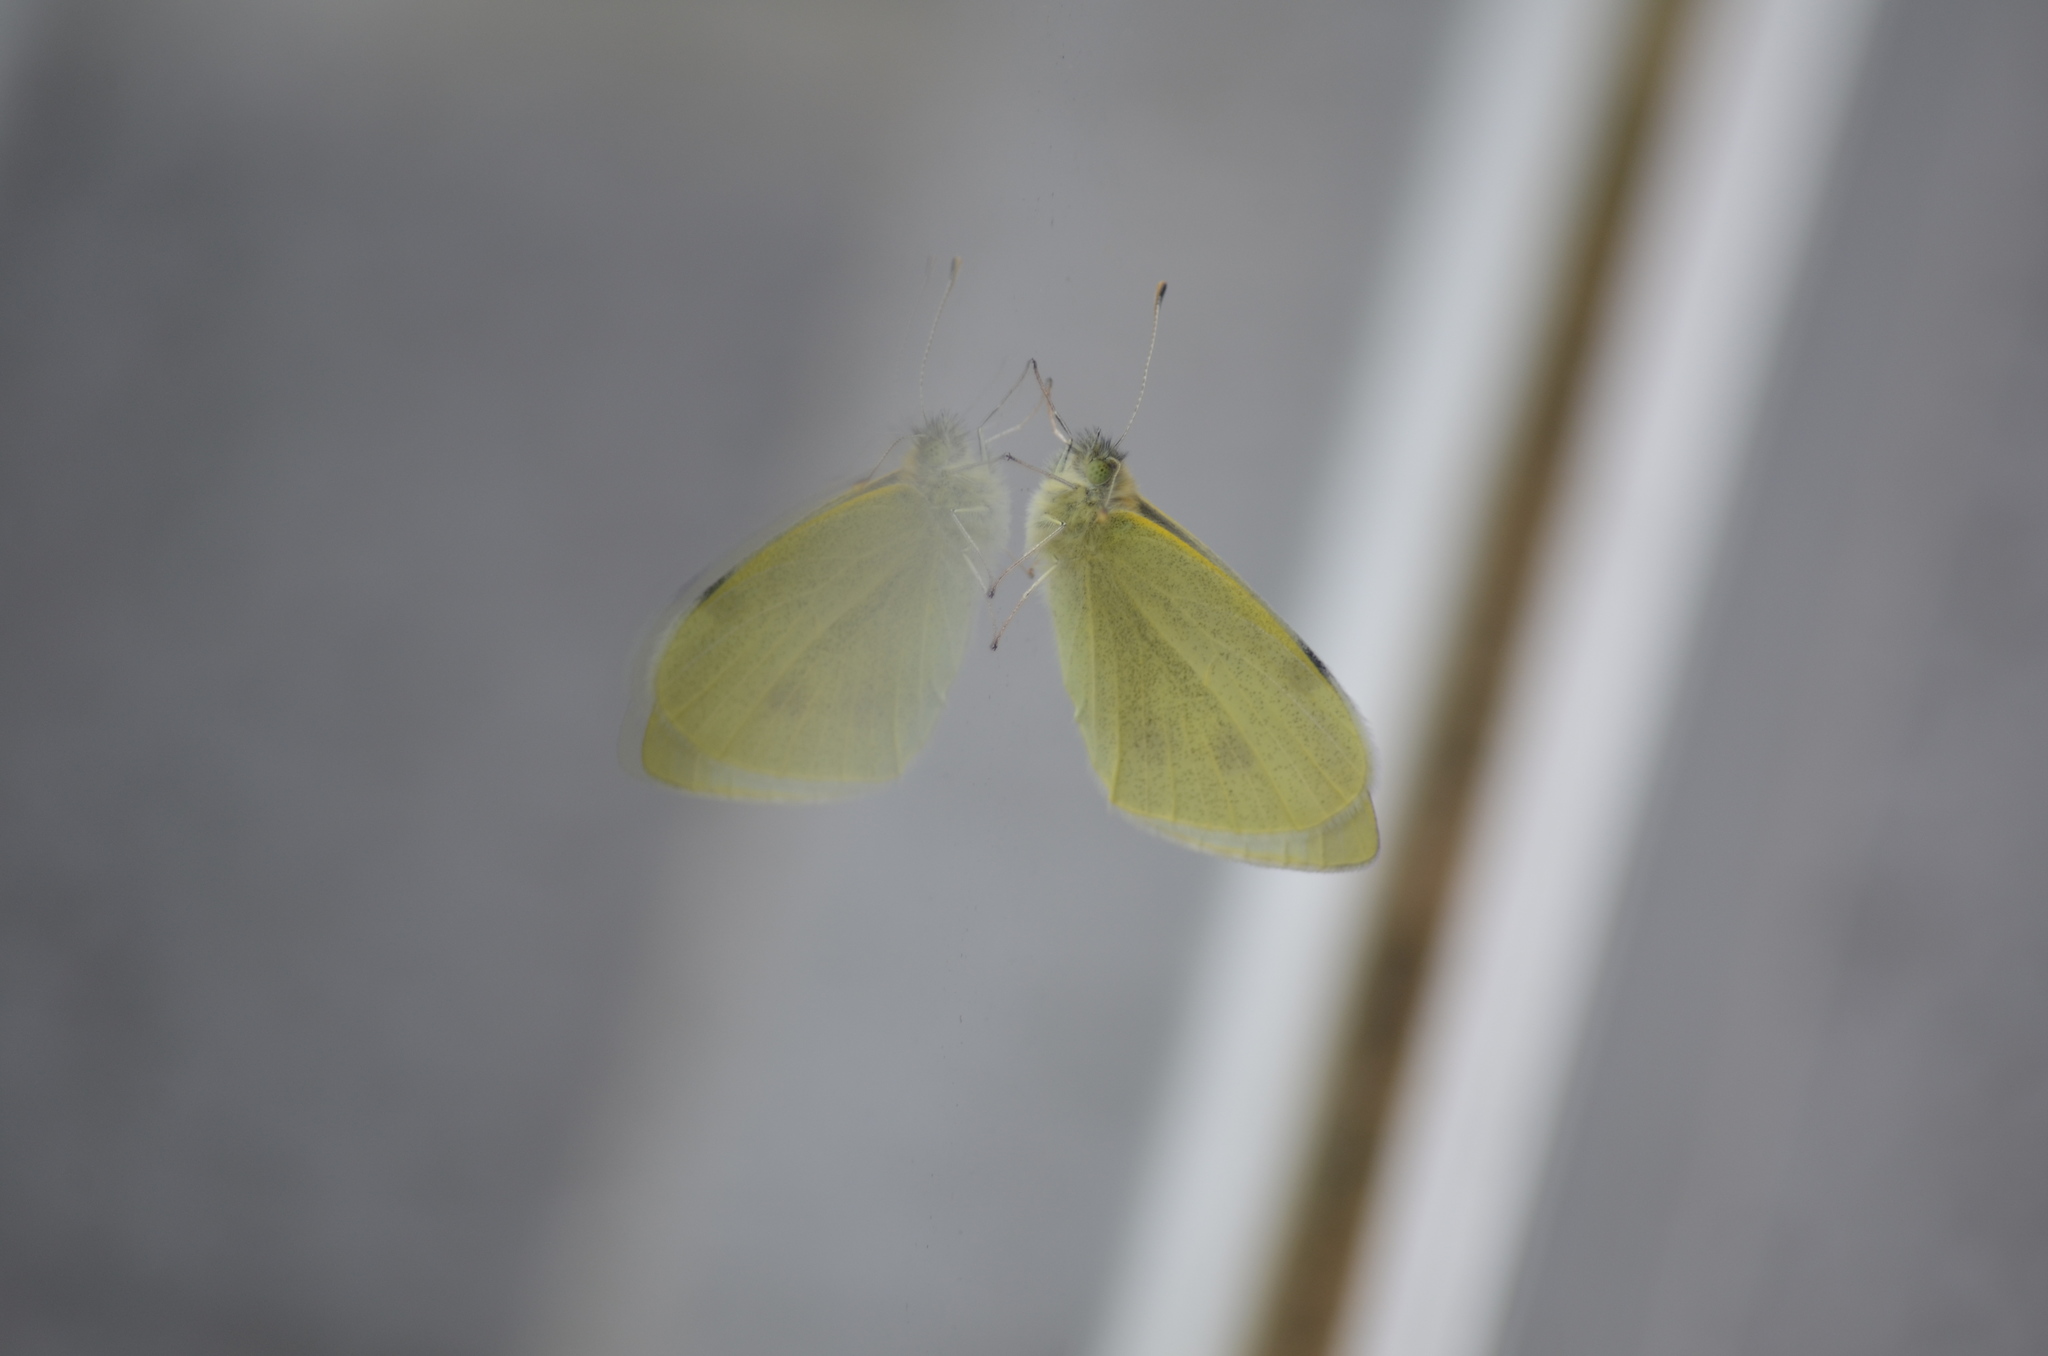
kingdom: Animalia
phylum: Arthropoda
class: Insecta
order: Lepidoptera
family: Pieridae
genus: Pieris
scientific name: Pieris rapae
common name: Small white
